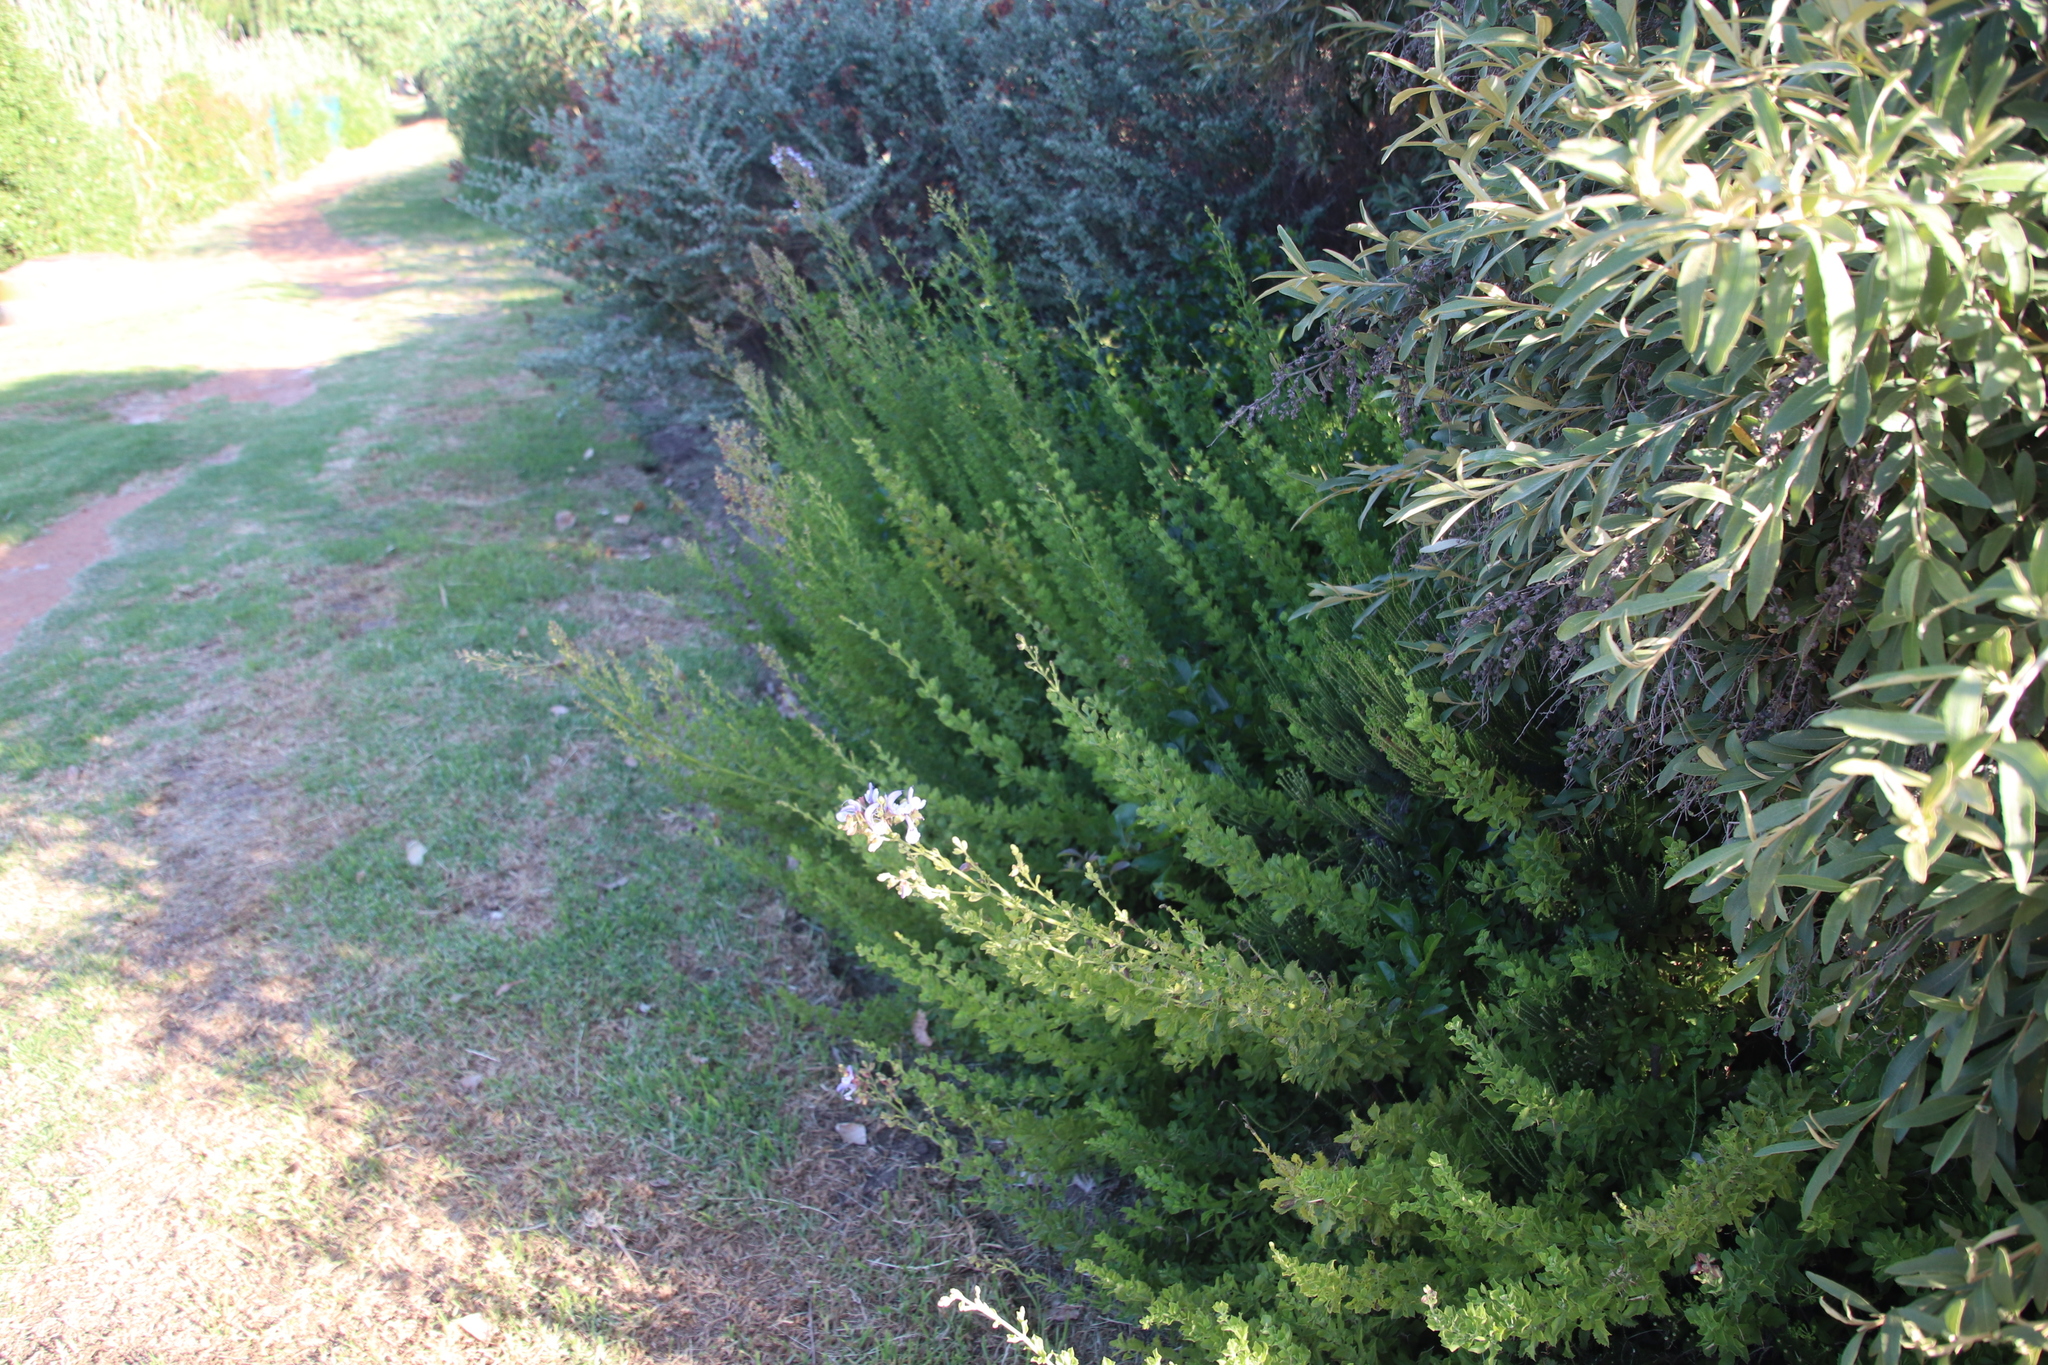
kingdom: Plantae
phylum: Tracheophyta
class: Magnoliopsida
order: Lamiales
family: Lamiaceae
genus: Salvia
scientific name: Salvia chamelaeagnea
